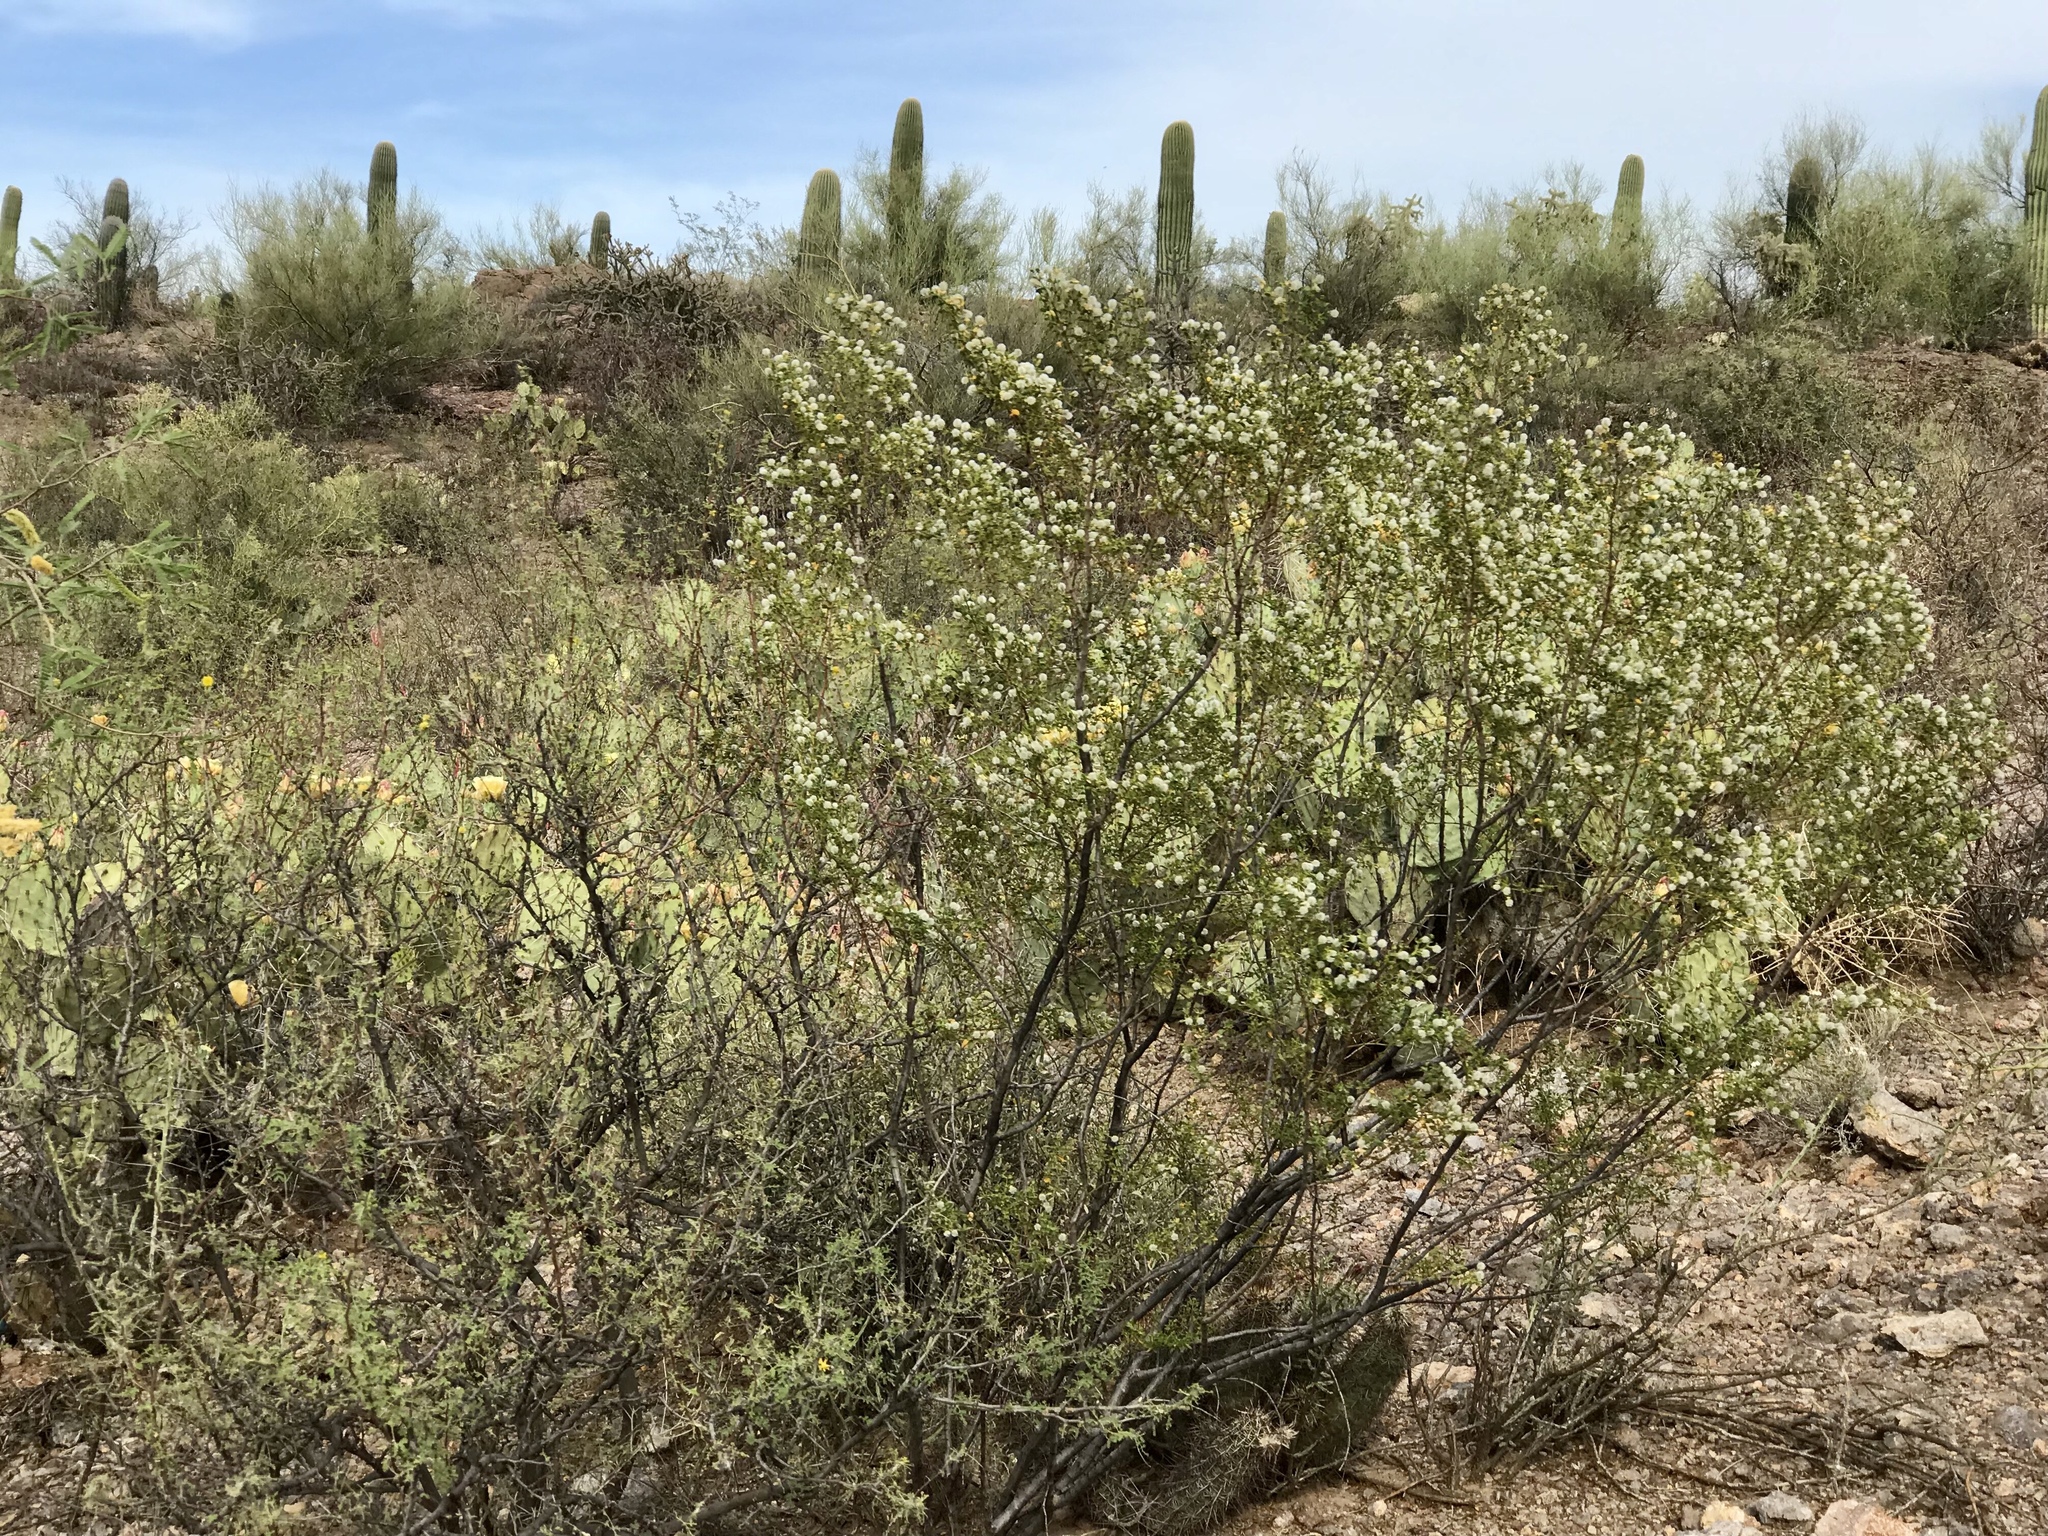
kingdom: Plantae
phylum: Tracheophyta
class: Magnoliopsida
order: Zygophyllales
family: Zygophyllaceae
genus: Larrea
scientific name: Larrea tridentata
